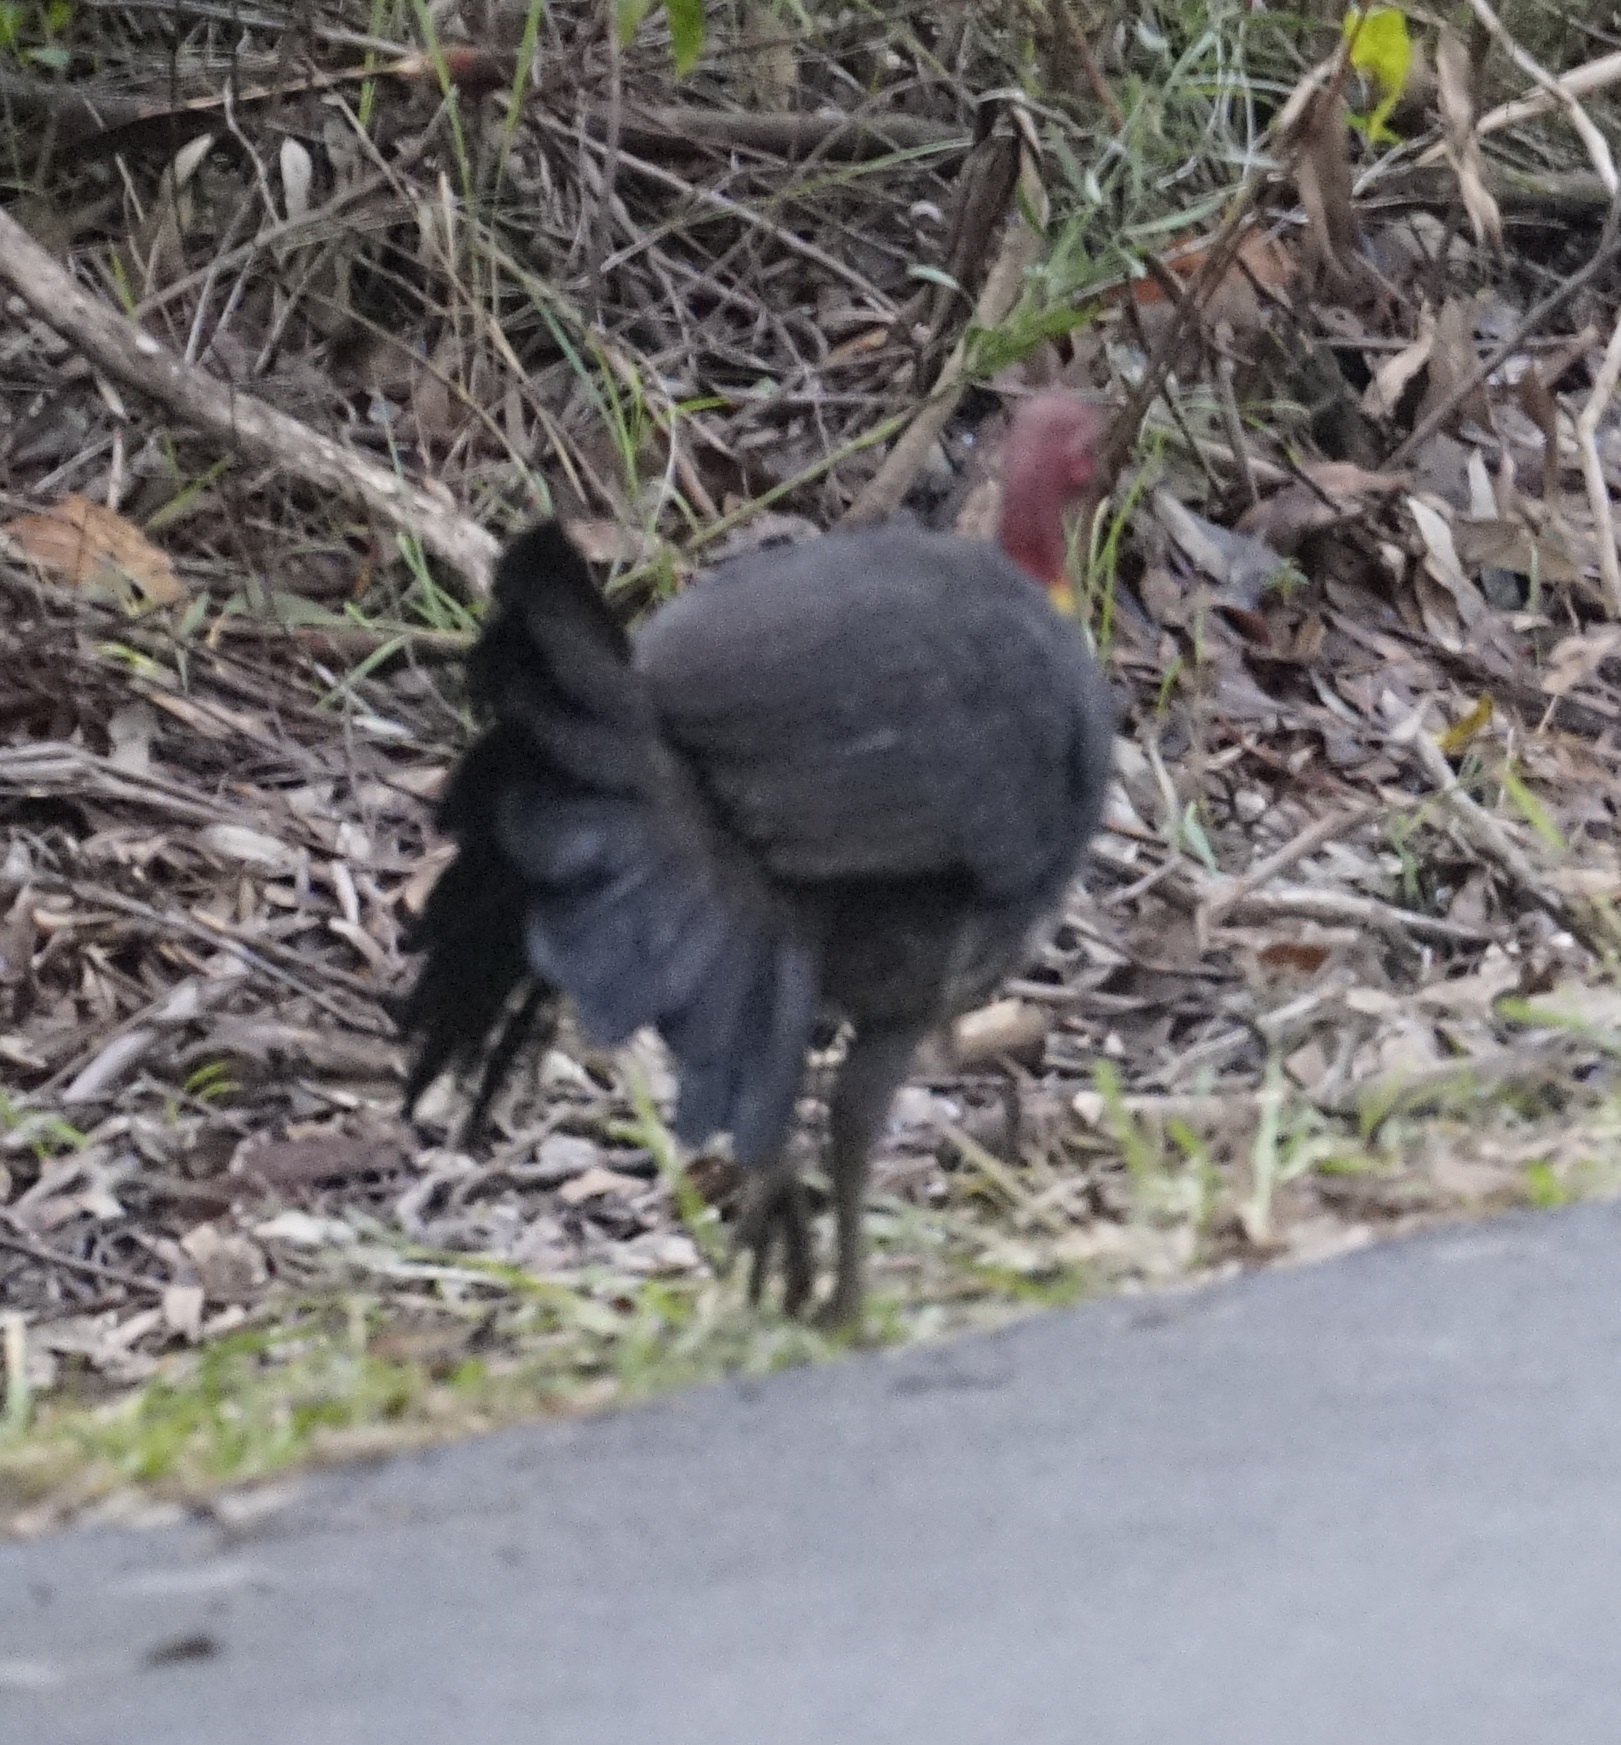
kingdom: Animalia
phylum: Chordata
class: Aves
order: Galliformes
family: Megapodiidae
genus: Alectura
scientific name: Alectura lathami
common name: Australian brushturkey
